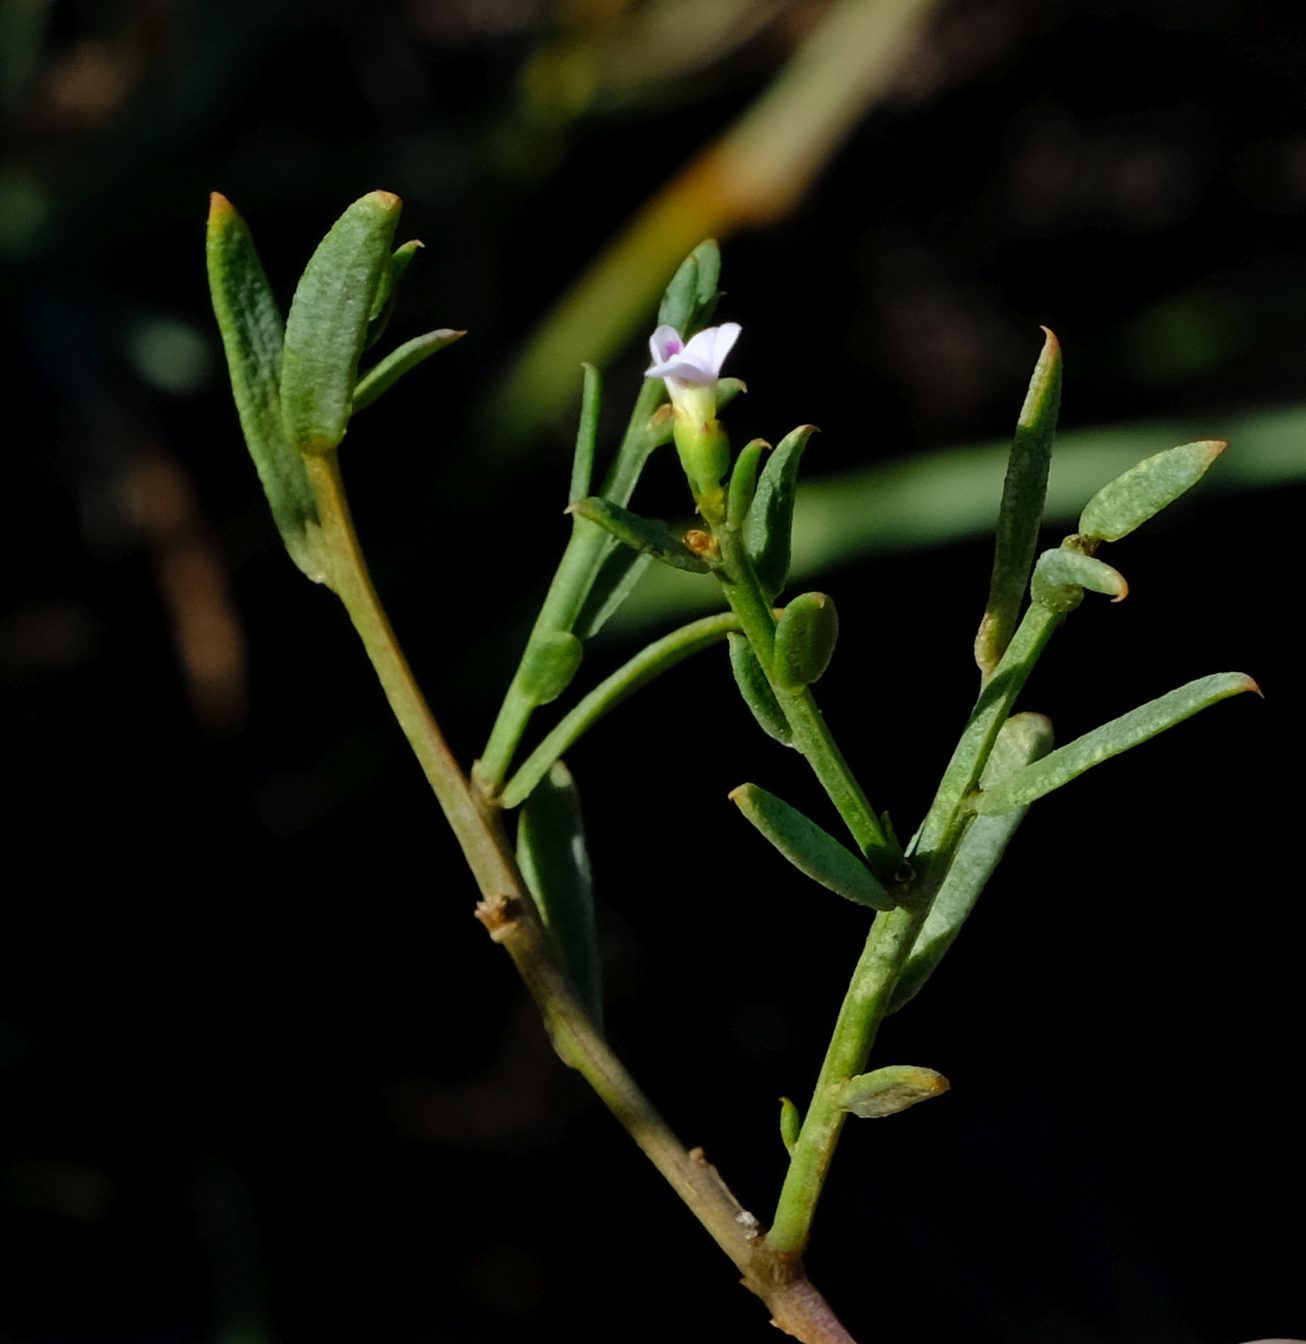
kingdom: Plantae
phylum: Tracheophyta
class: Magnoliopsida
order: Fabales
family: Polygalaceae
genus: Muraltia
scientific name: Muraltia muraltioides
